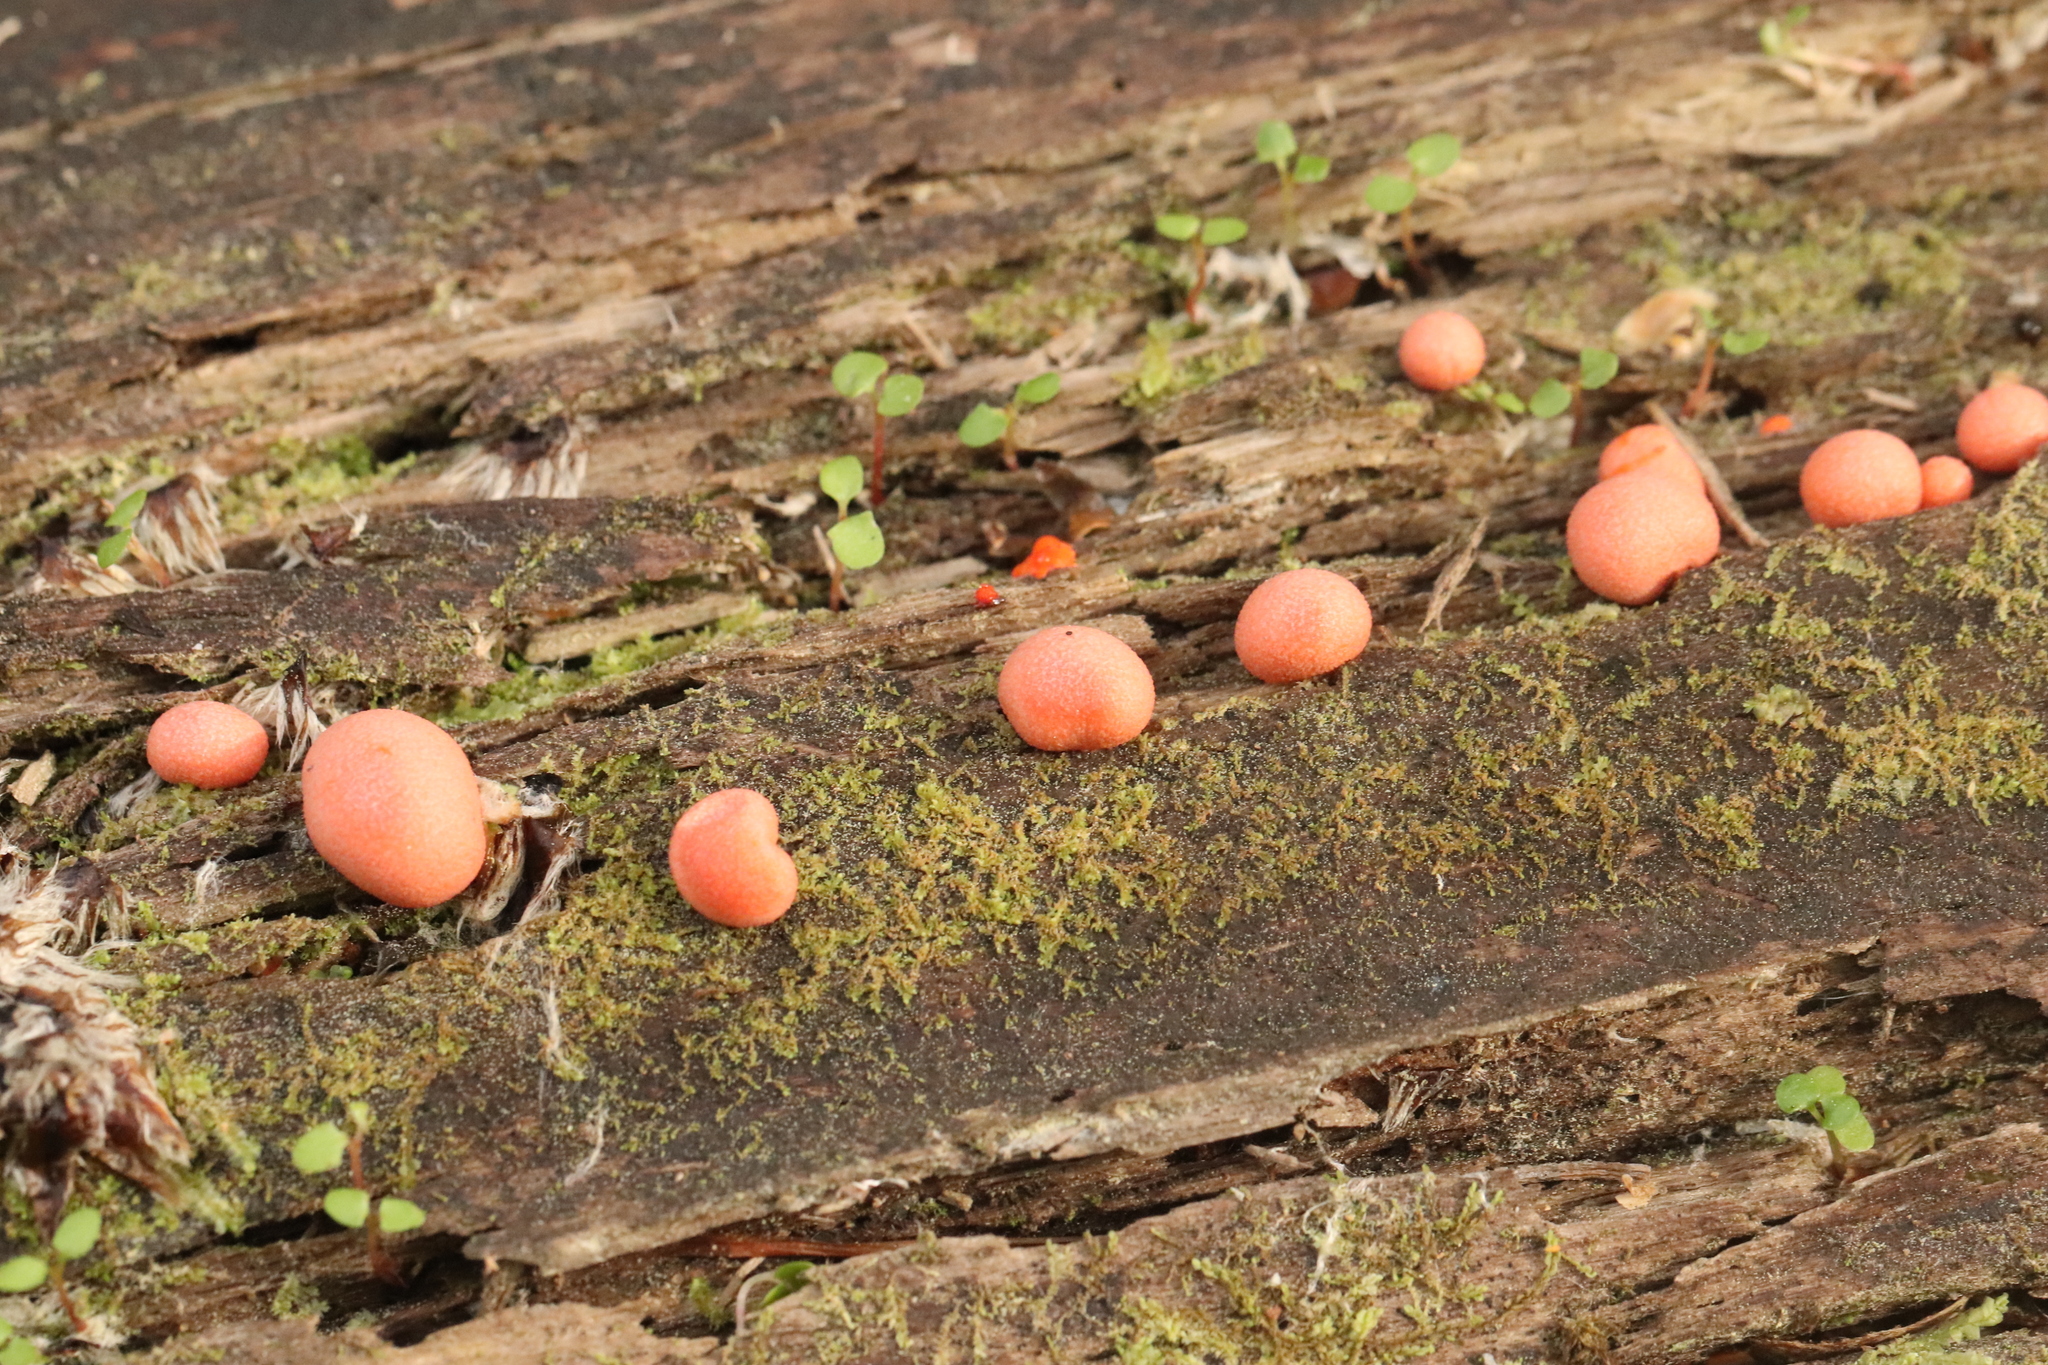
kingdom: Protozoa
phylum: Mycetozoa
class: Myxomycetes
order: Cribrariales
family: Tubiferaceae
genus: Lycogala
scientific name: Lycogala epidendrum
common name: Wolf's milk
